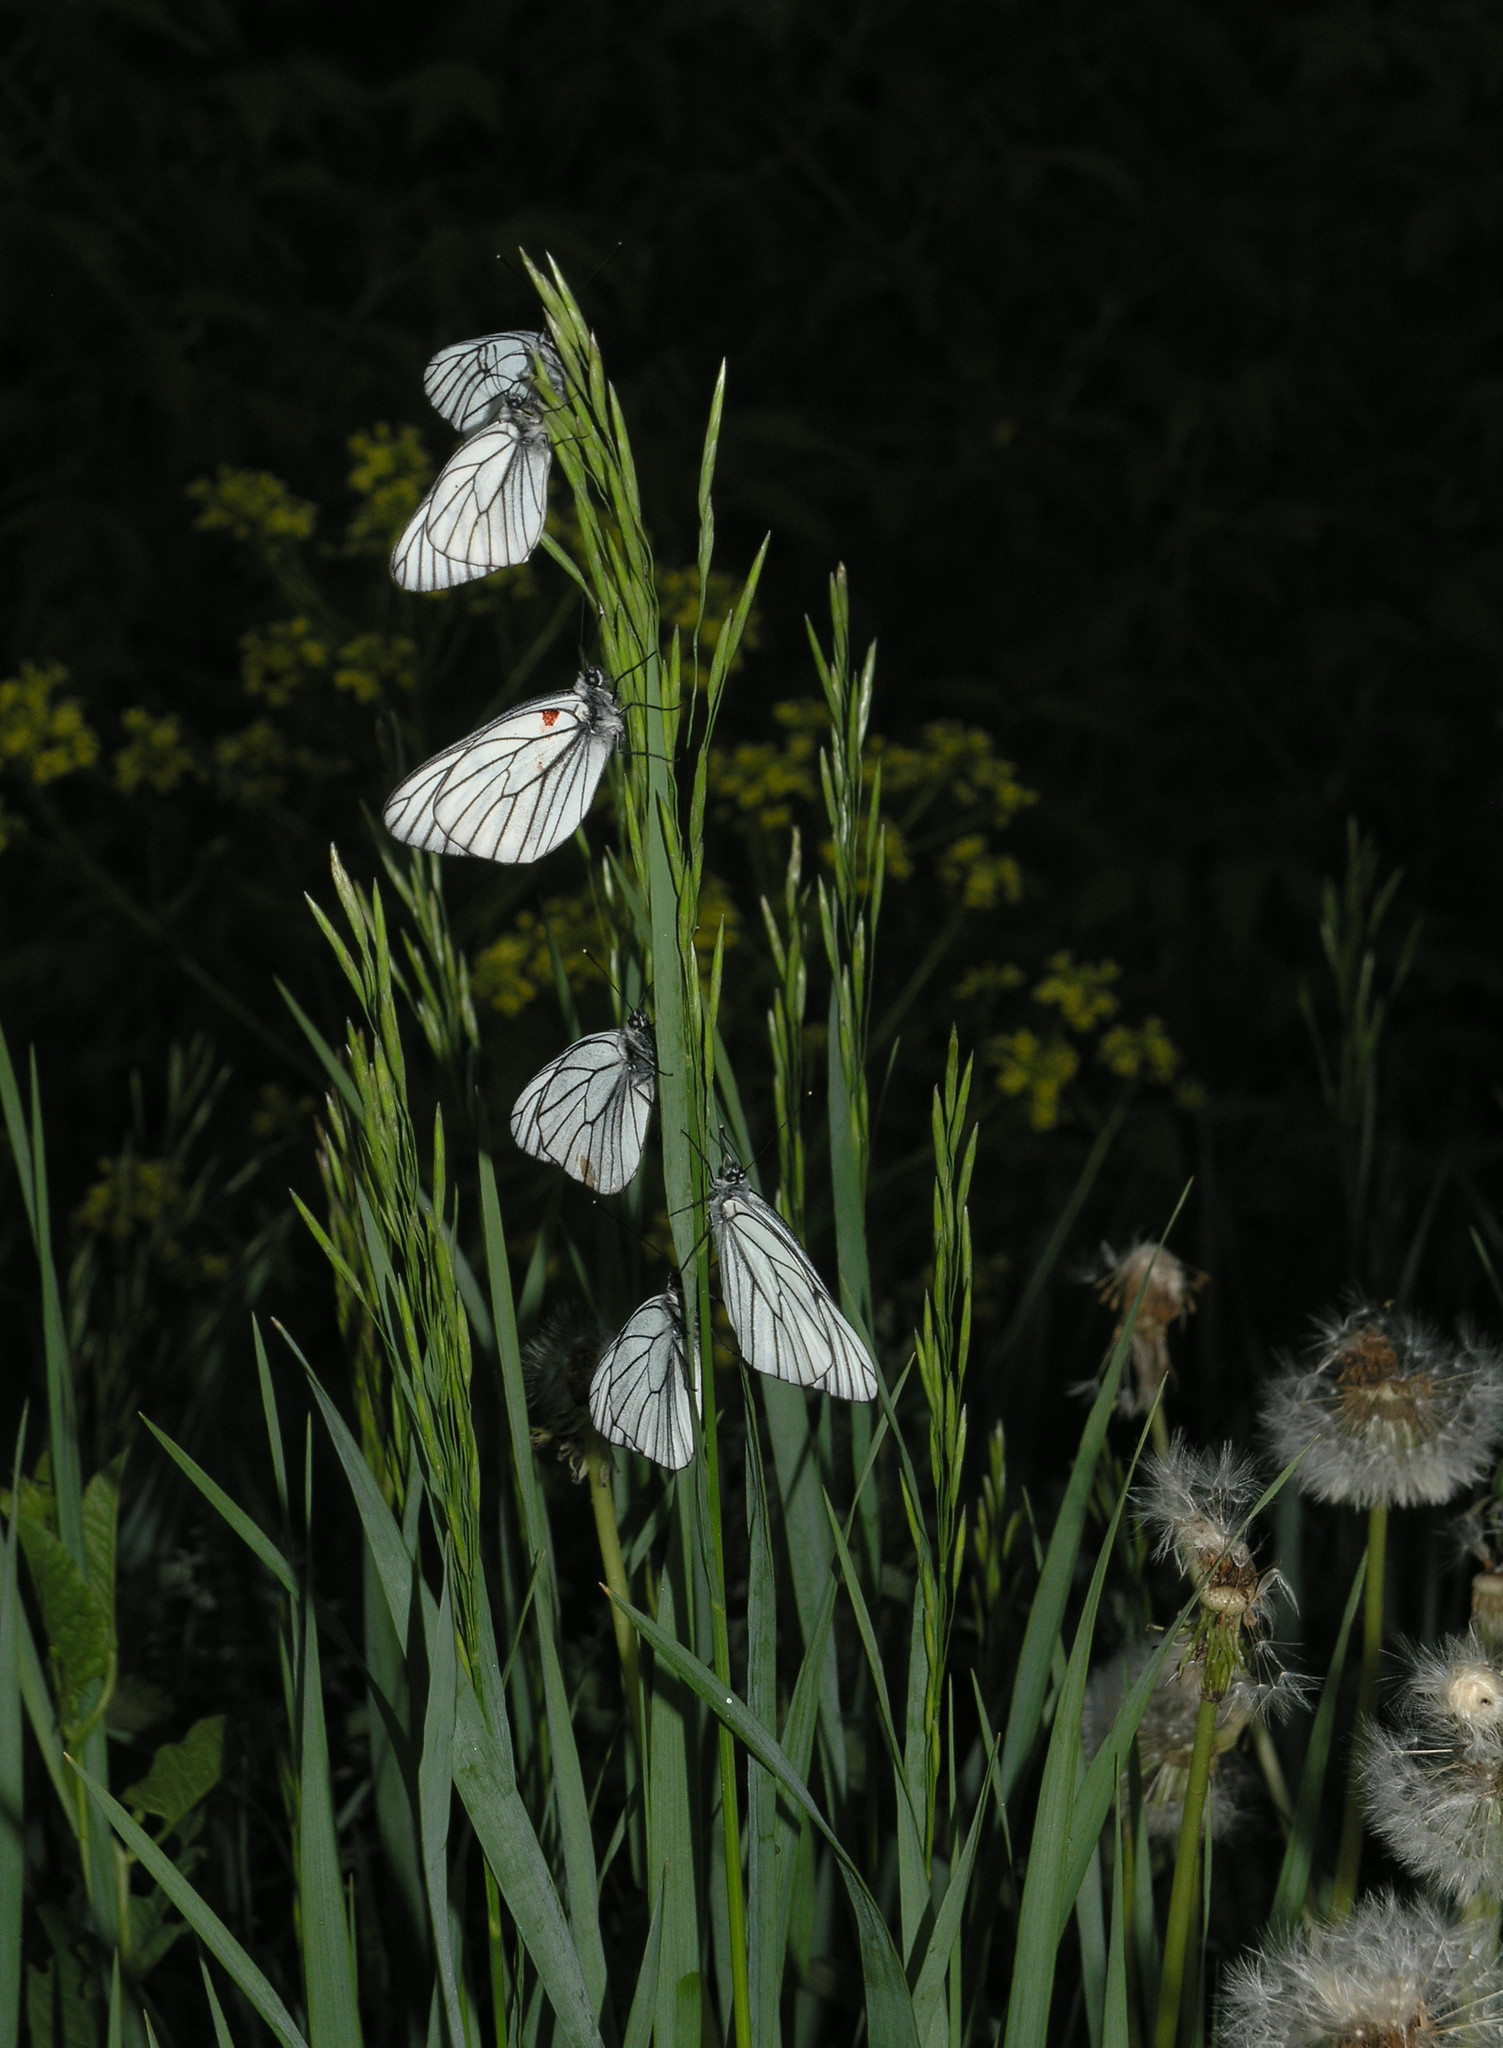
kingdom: Animalia
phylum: Arthropoda
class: Insecta
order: Lepidoptera
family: Pieridae
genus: Aporia
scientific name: Aporia crataegi
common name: Black-veined white
